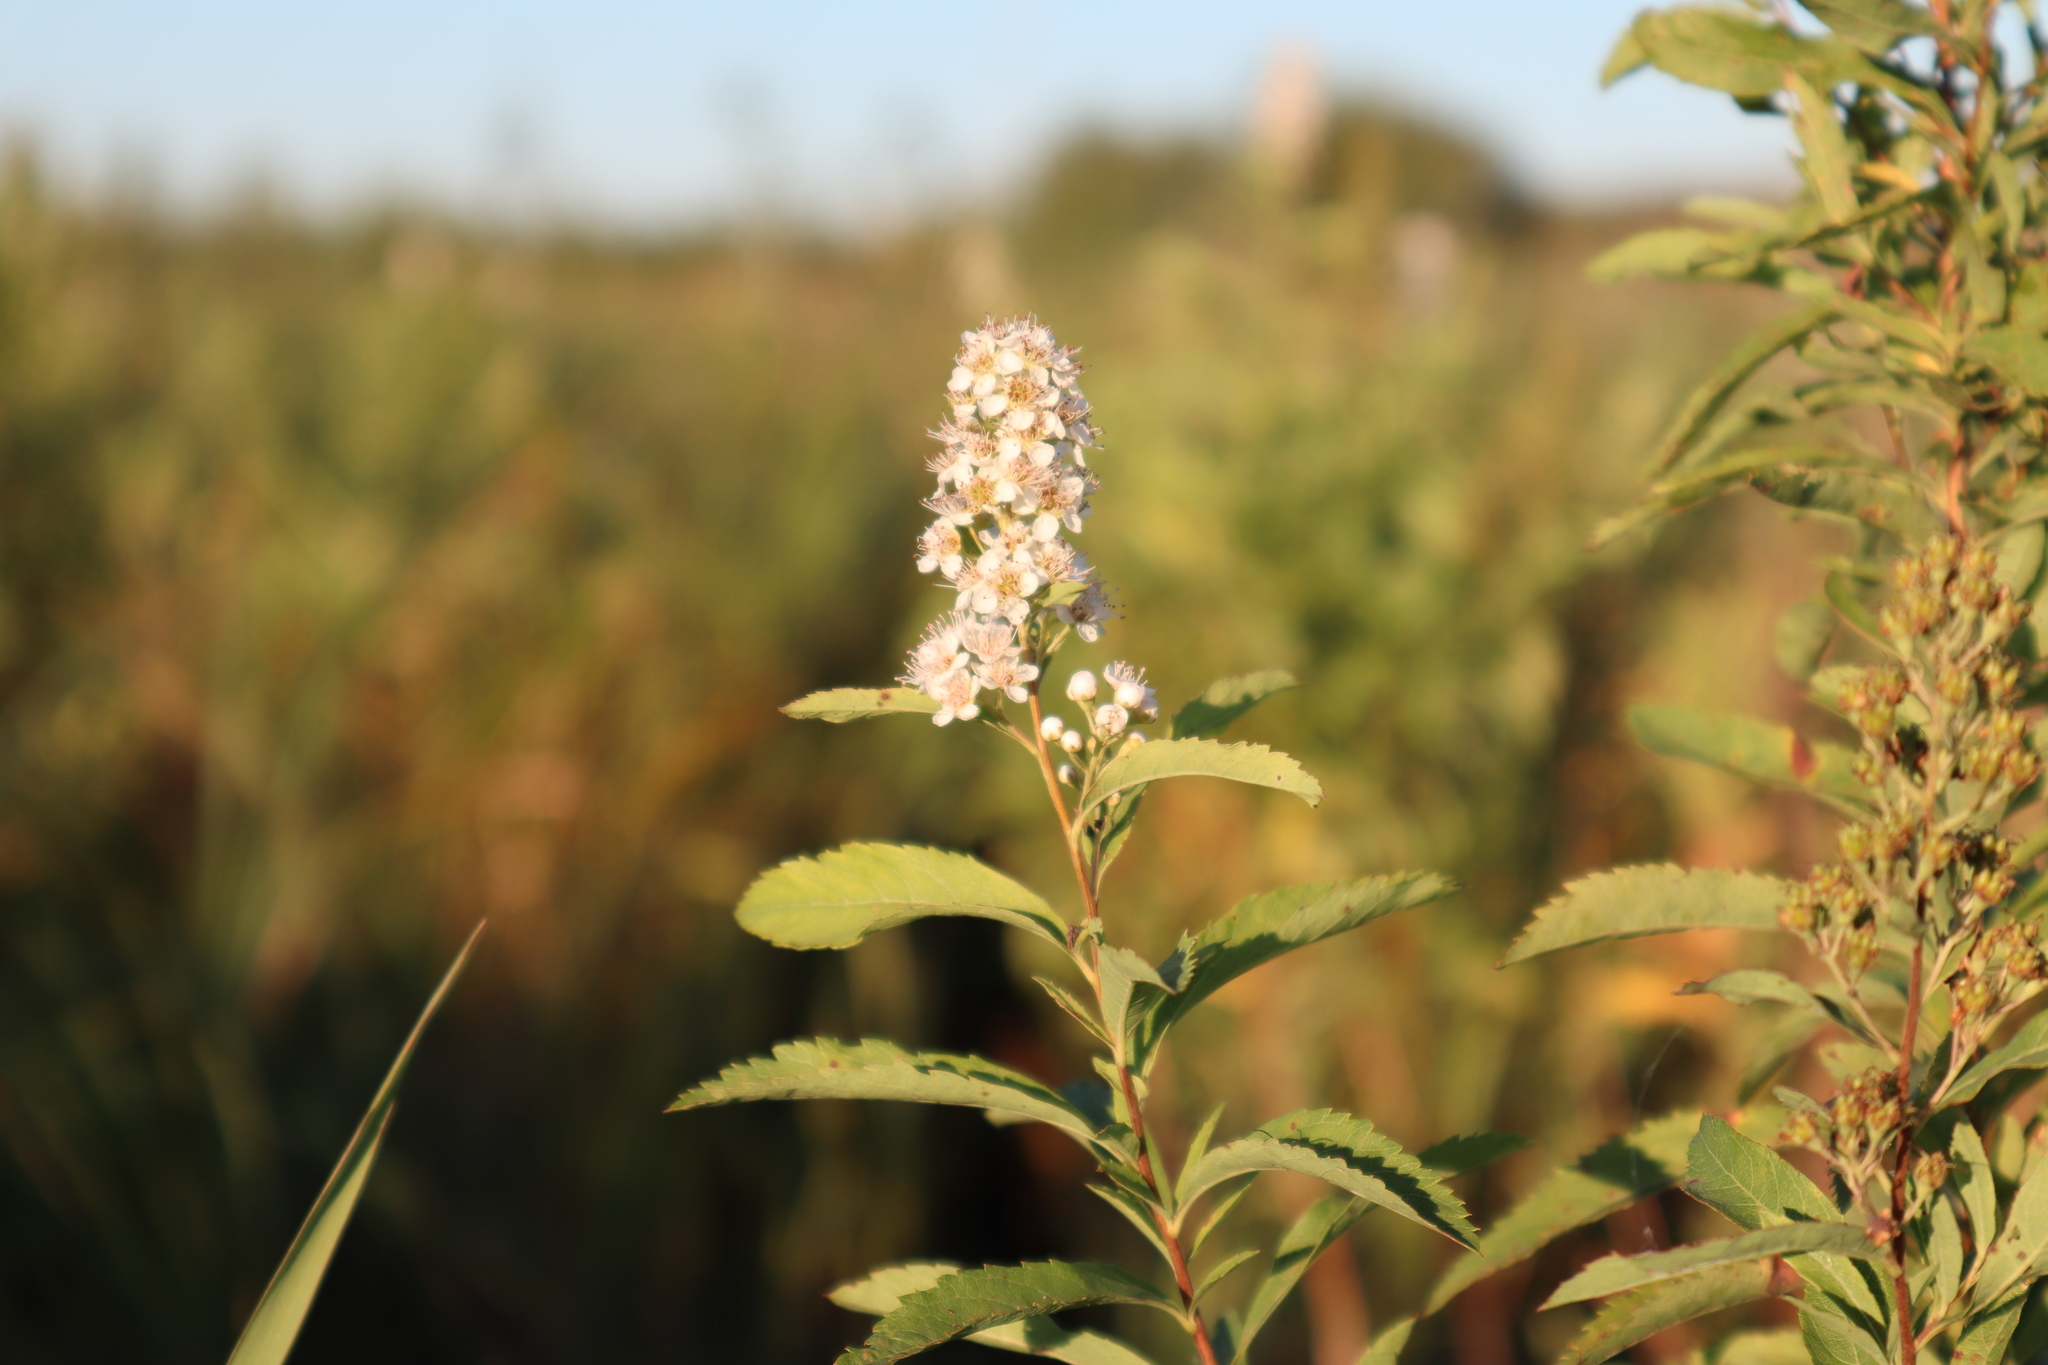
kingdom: Plantae
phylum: Tracheophyta
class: Magnoliopsida
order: Rosales
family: Rosaceae
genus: Spiraea
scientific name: Spiraea alba
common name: Pale bridewort
